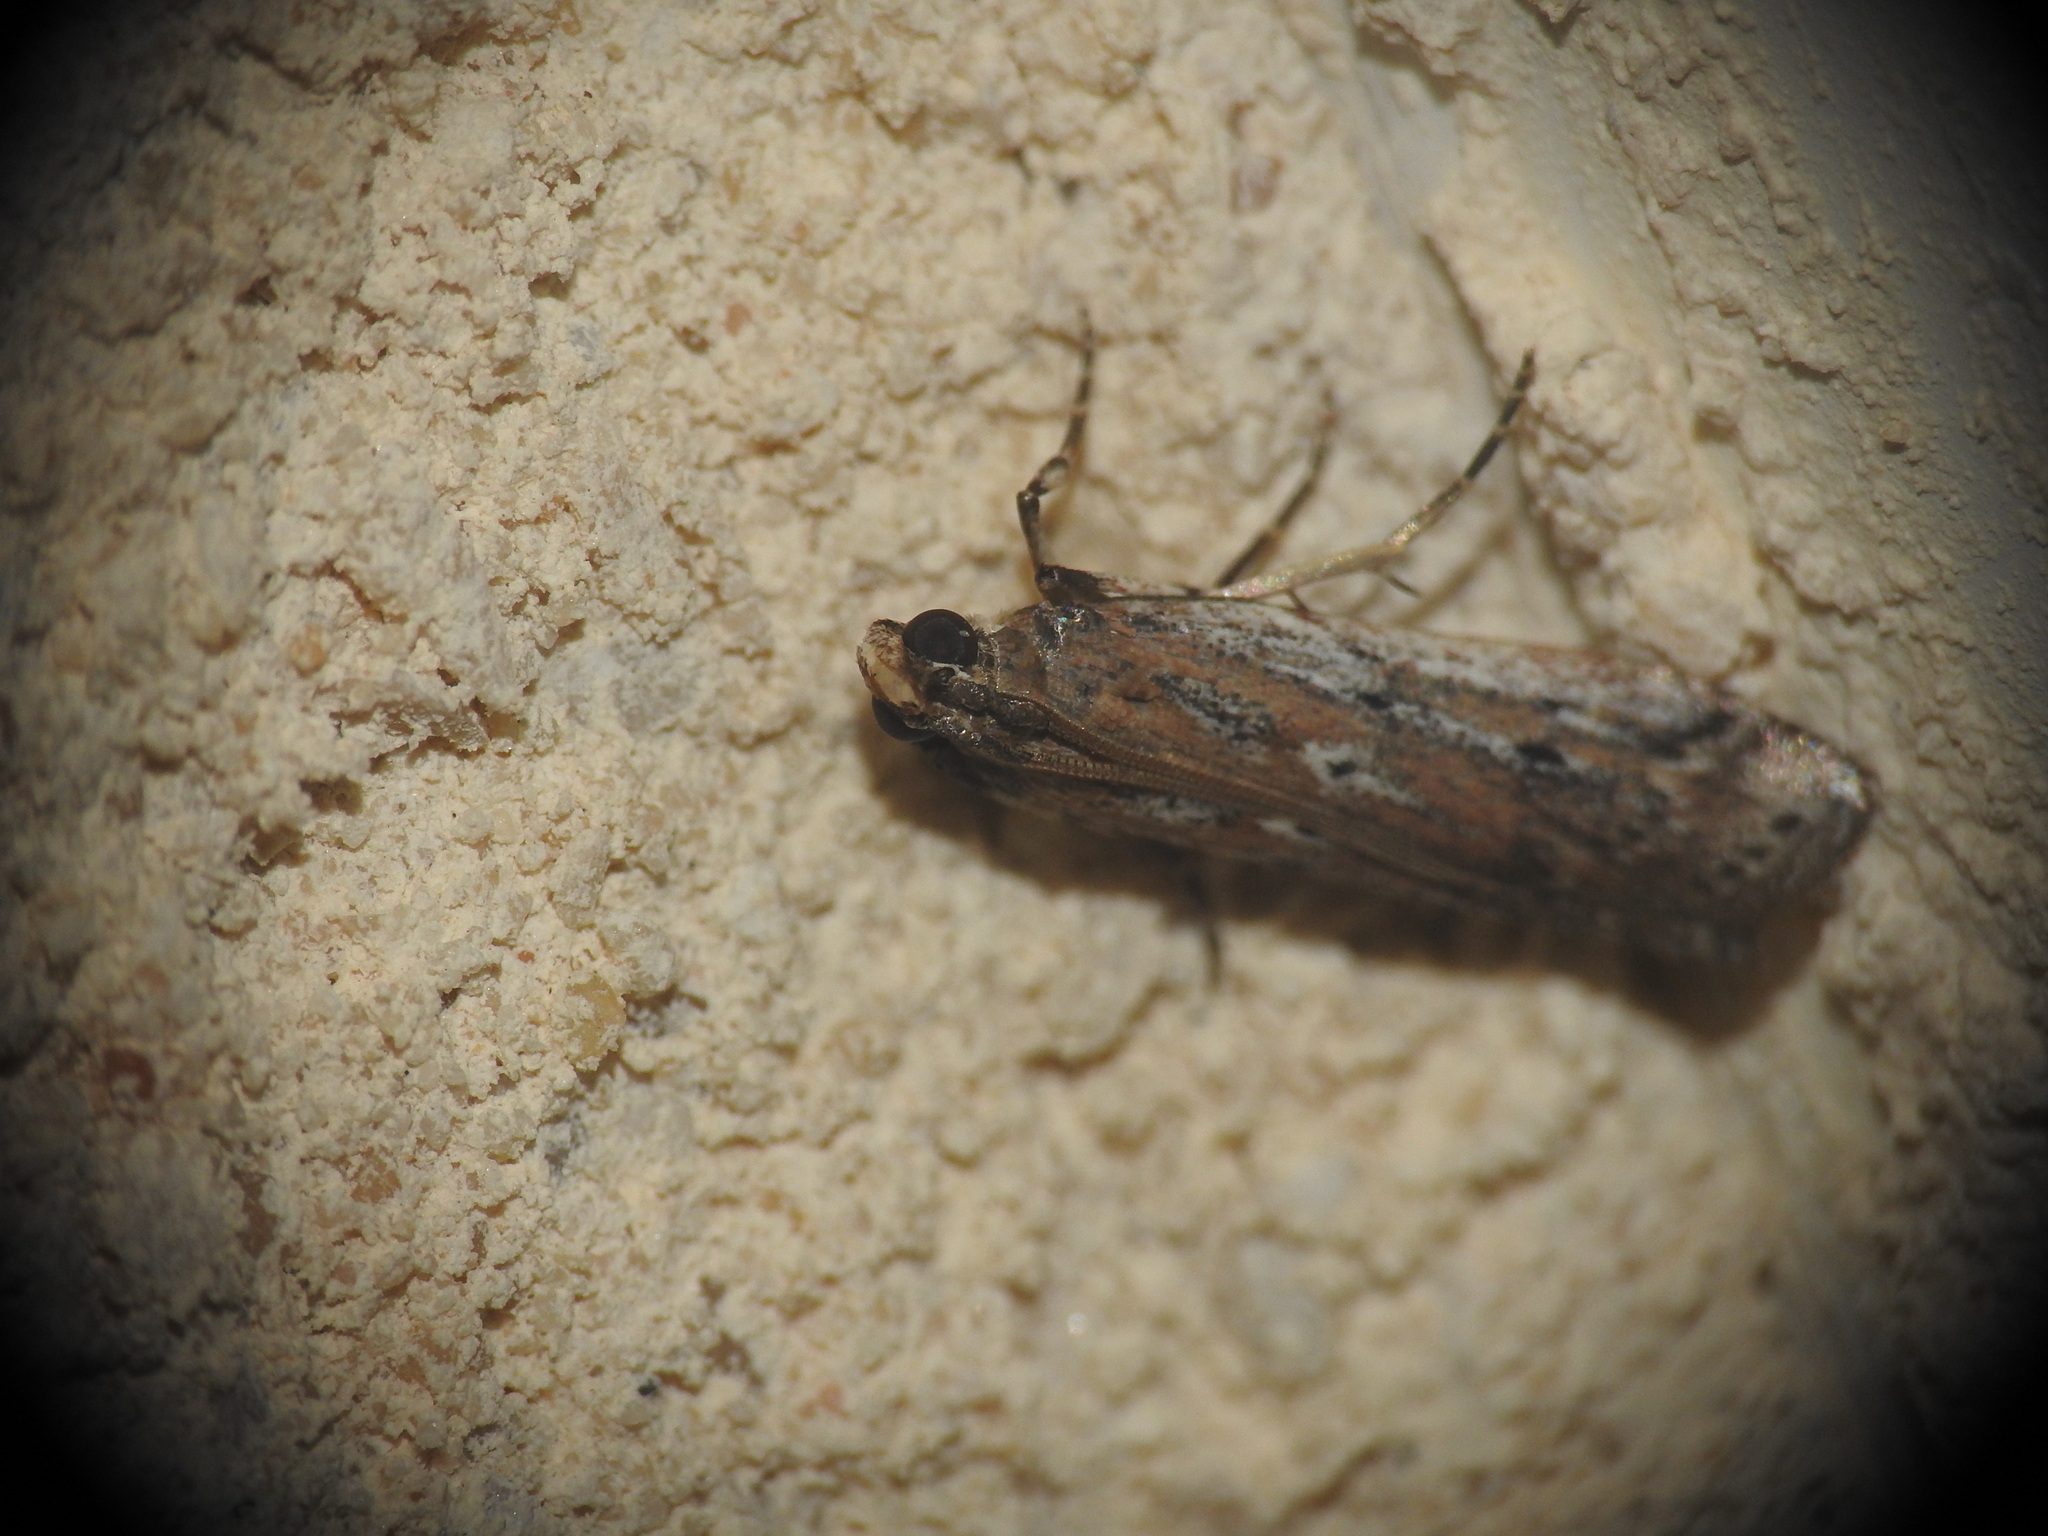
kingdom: Animalia
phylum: Arthropoda
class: Insecta
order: Lepidoptera
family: Pyralidae
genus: Pempelia
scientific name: Pempelia ornatella
